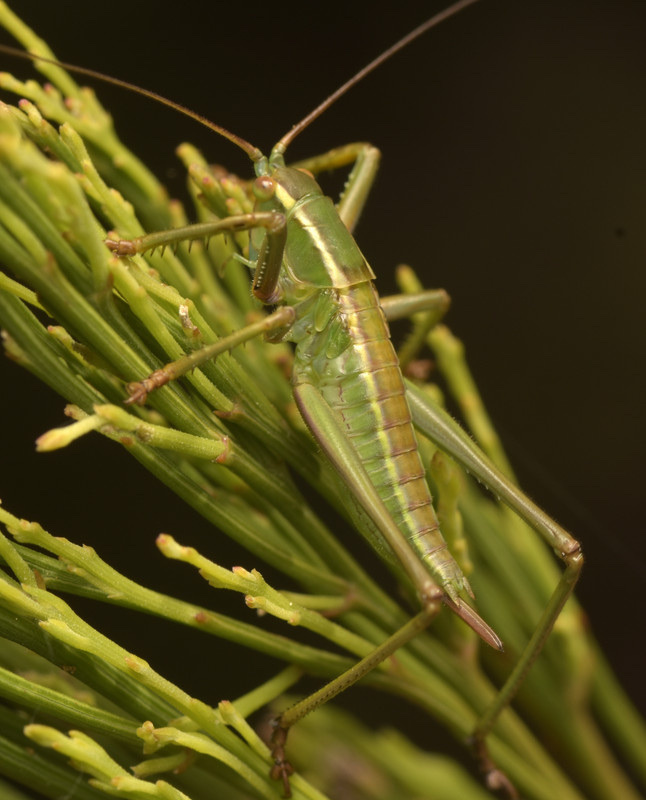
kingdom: Animalia
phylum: Arthropoda
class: Insecta
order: Orthoptera
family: Tettigoniidae
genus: Terpandrus
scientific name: Terpandrus jumbunna
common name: Jumbunna gumleaf katydid
